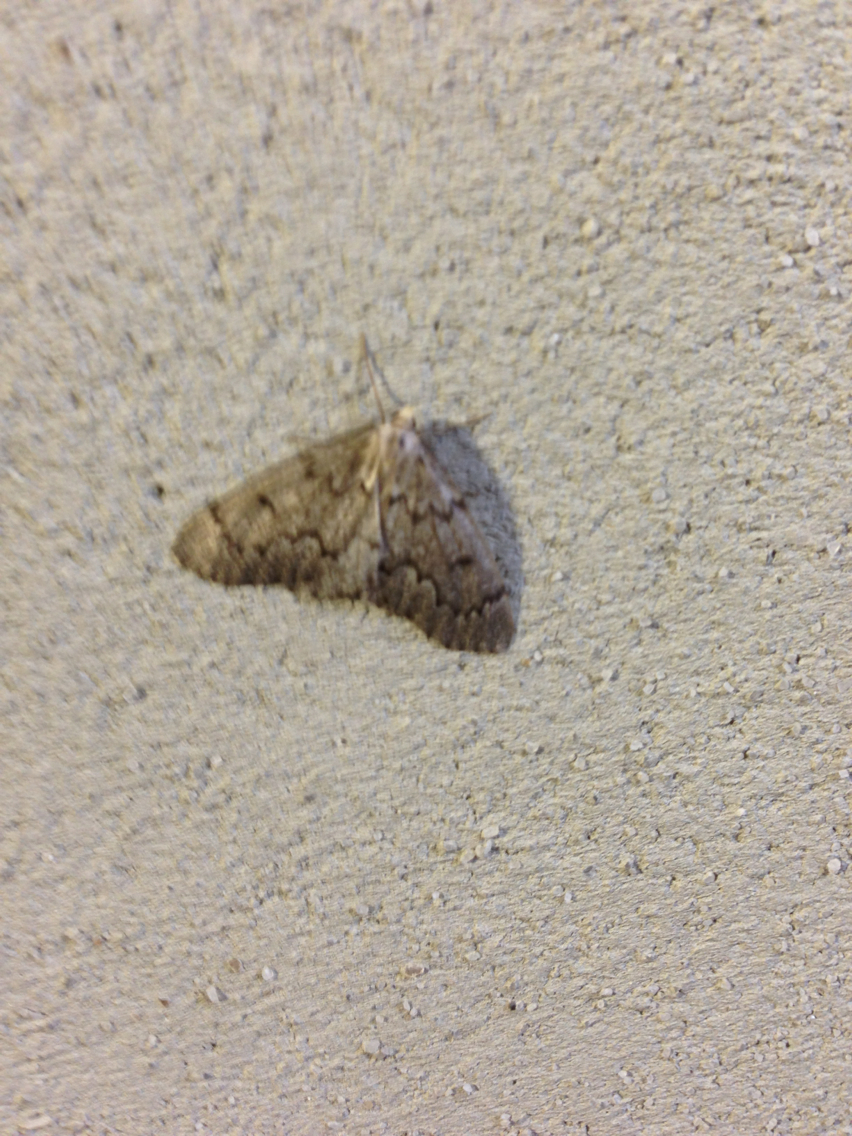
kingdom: Animalia
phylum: Arthropoda
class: Insecta
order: Lepidoptera
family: Geometridae
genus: Nepytia
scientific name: Nepytia canosaria
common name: False hemlock looper
